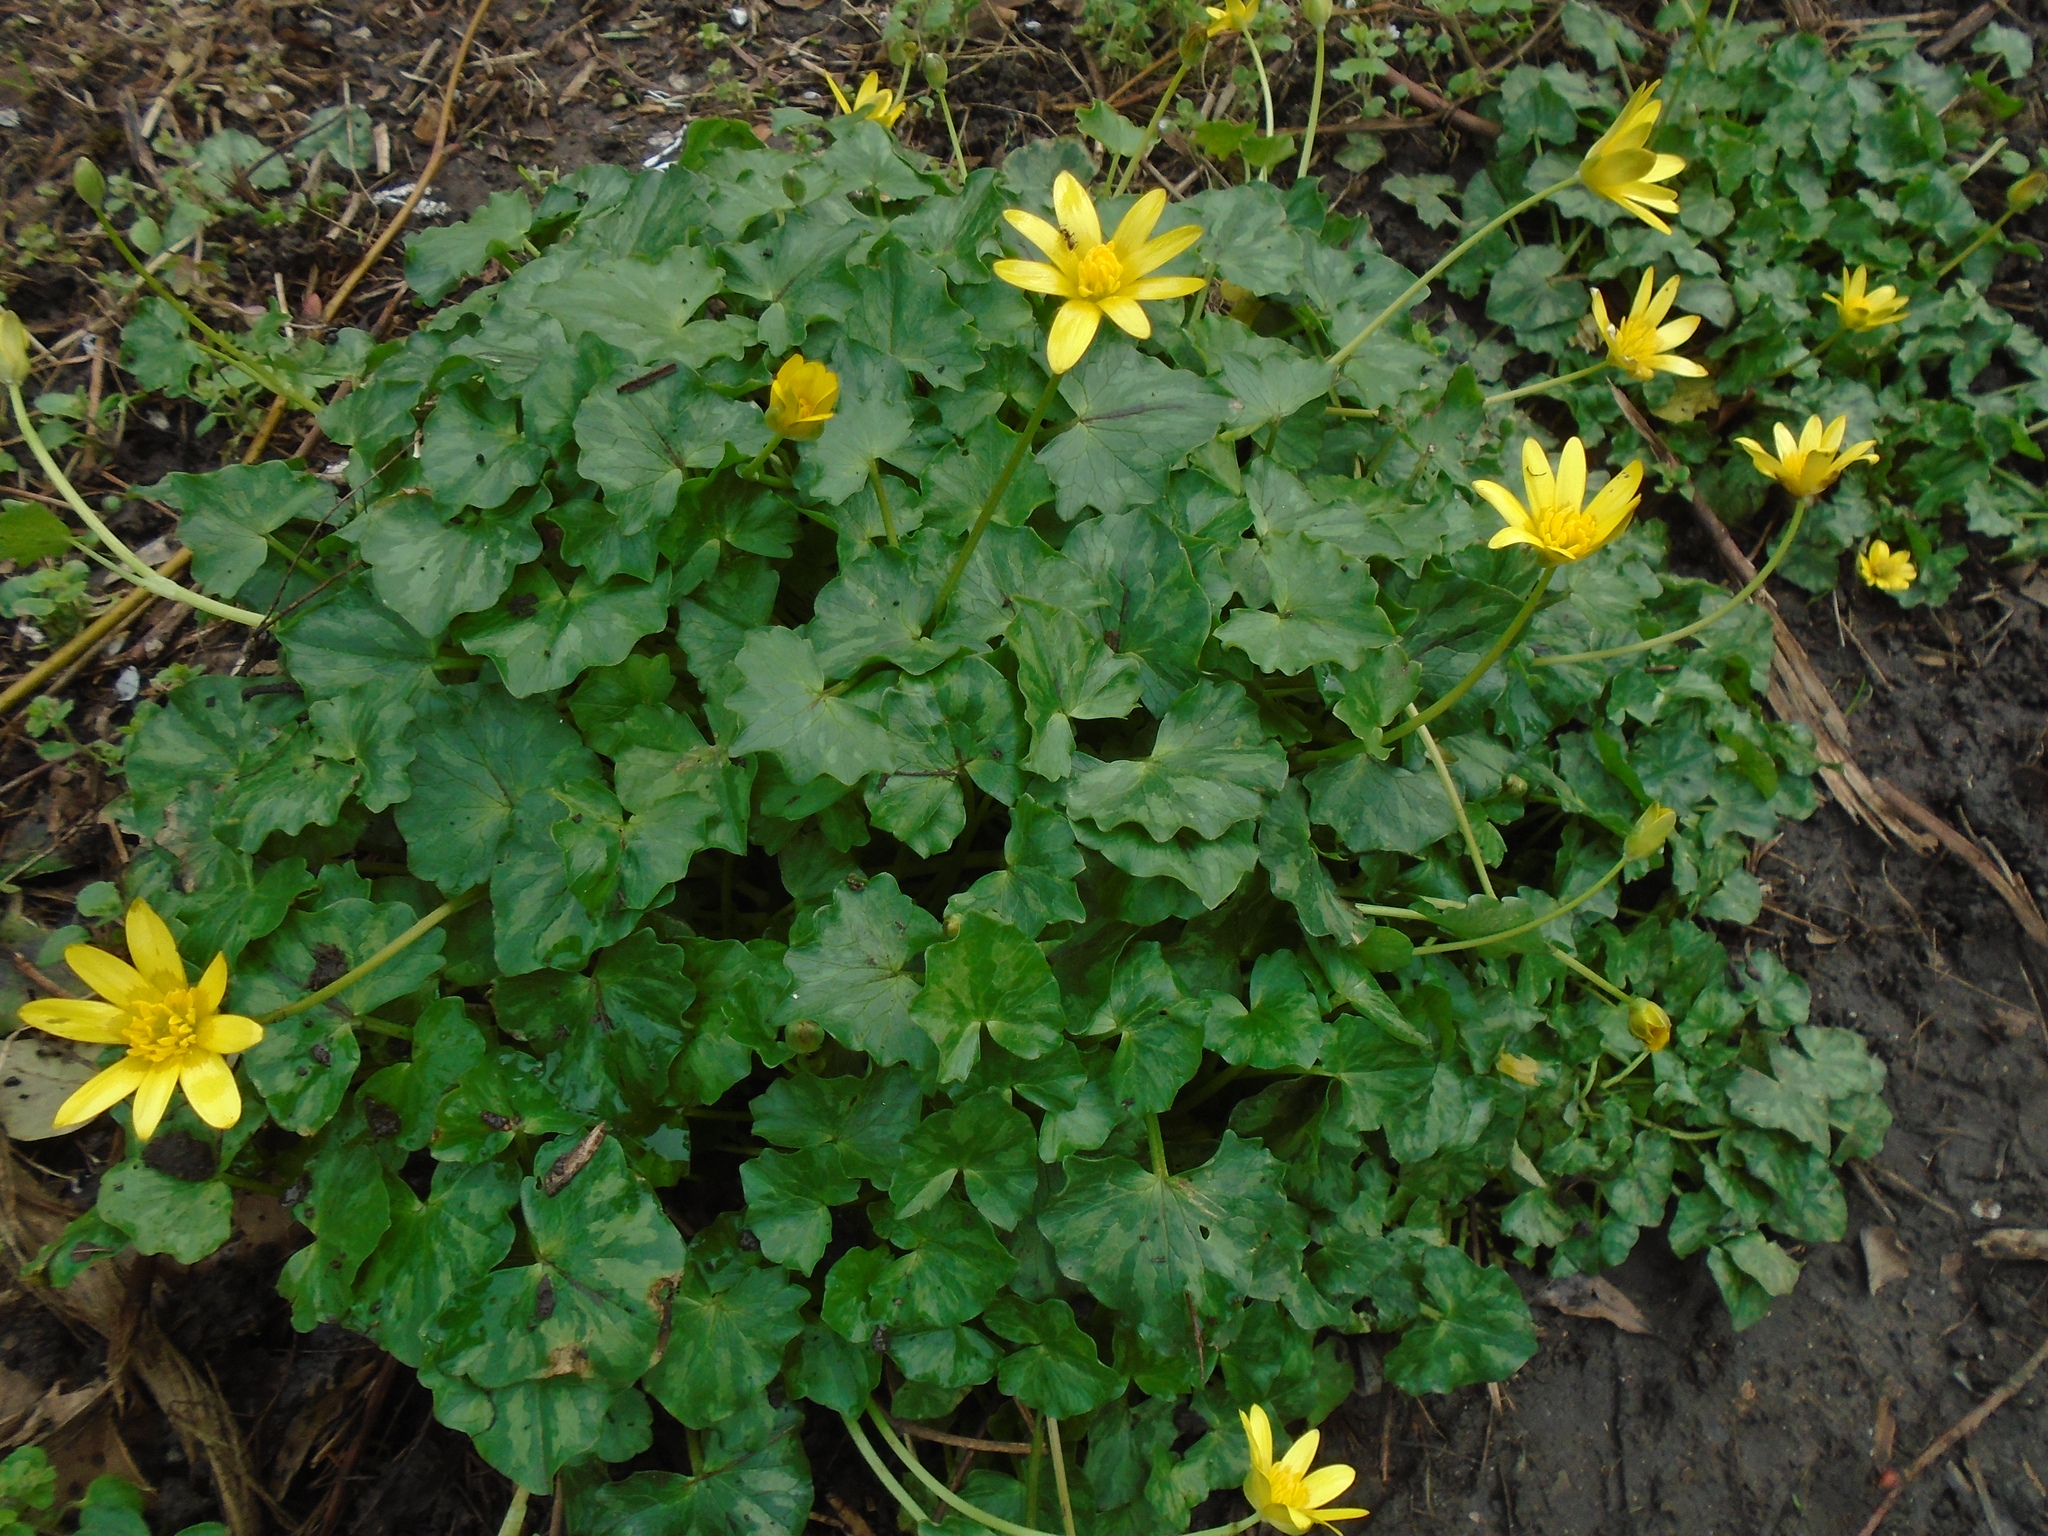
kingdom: Plantae
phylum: Tracheophyta
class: Magnoliopsida
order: Ranunculales
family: Ranunculaceae
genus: Ficaria
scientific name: Ficaria verna
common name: Lesser celandine
